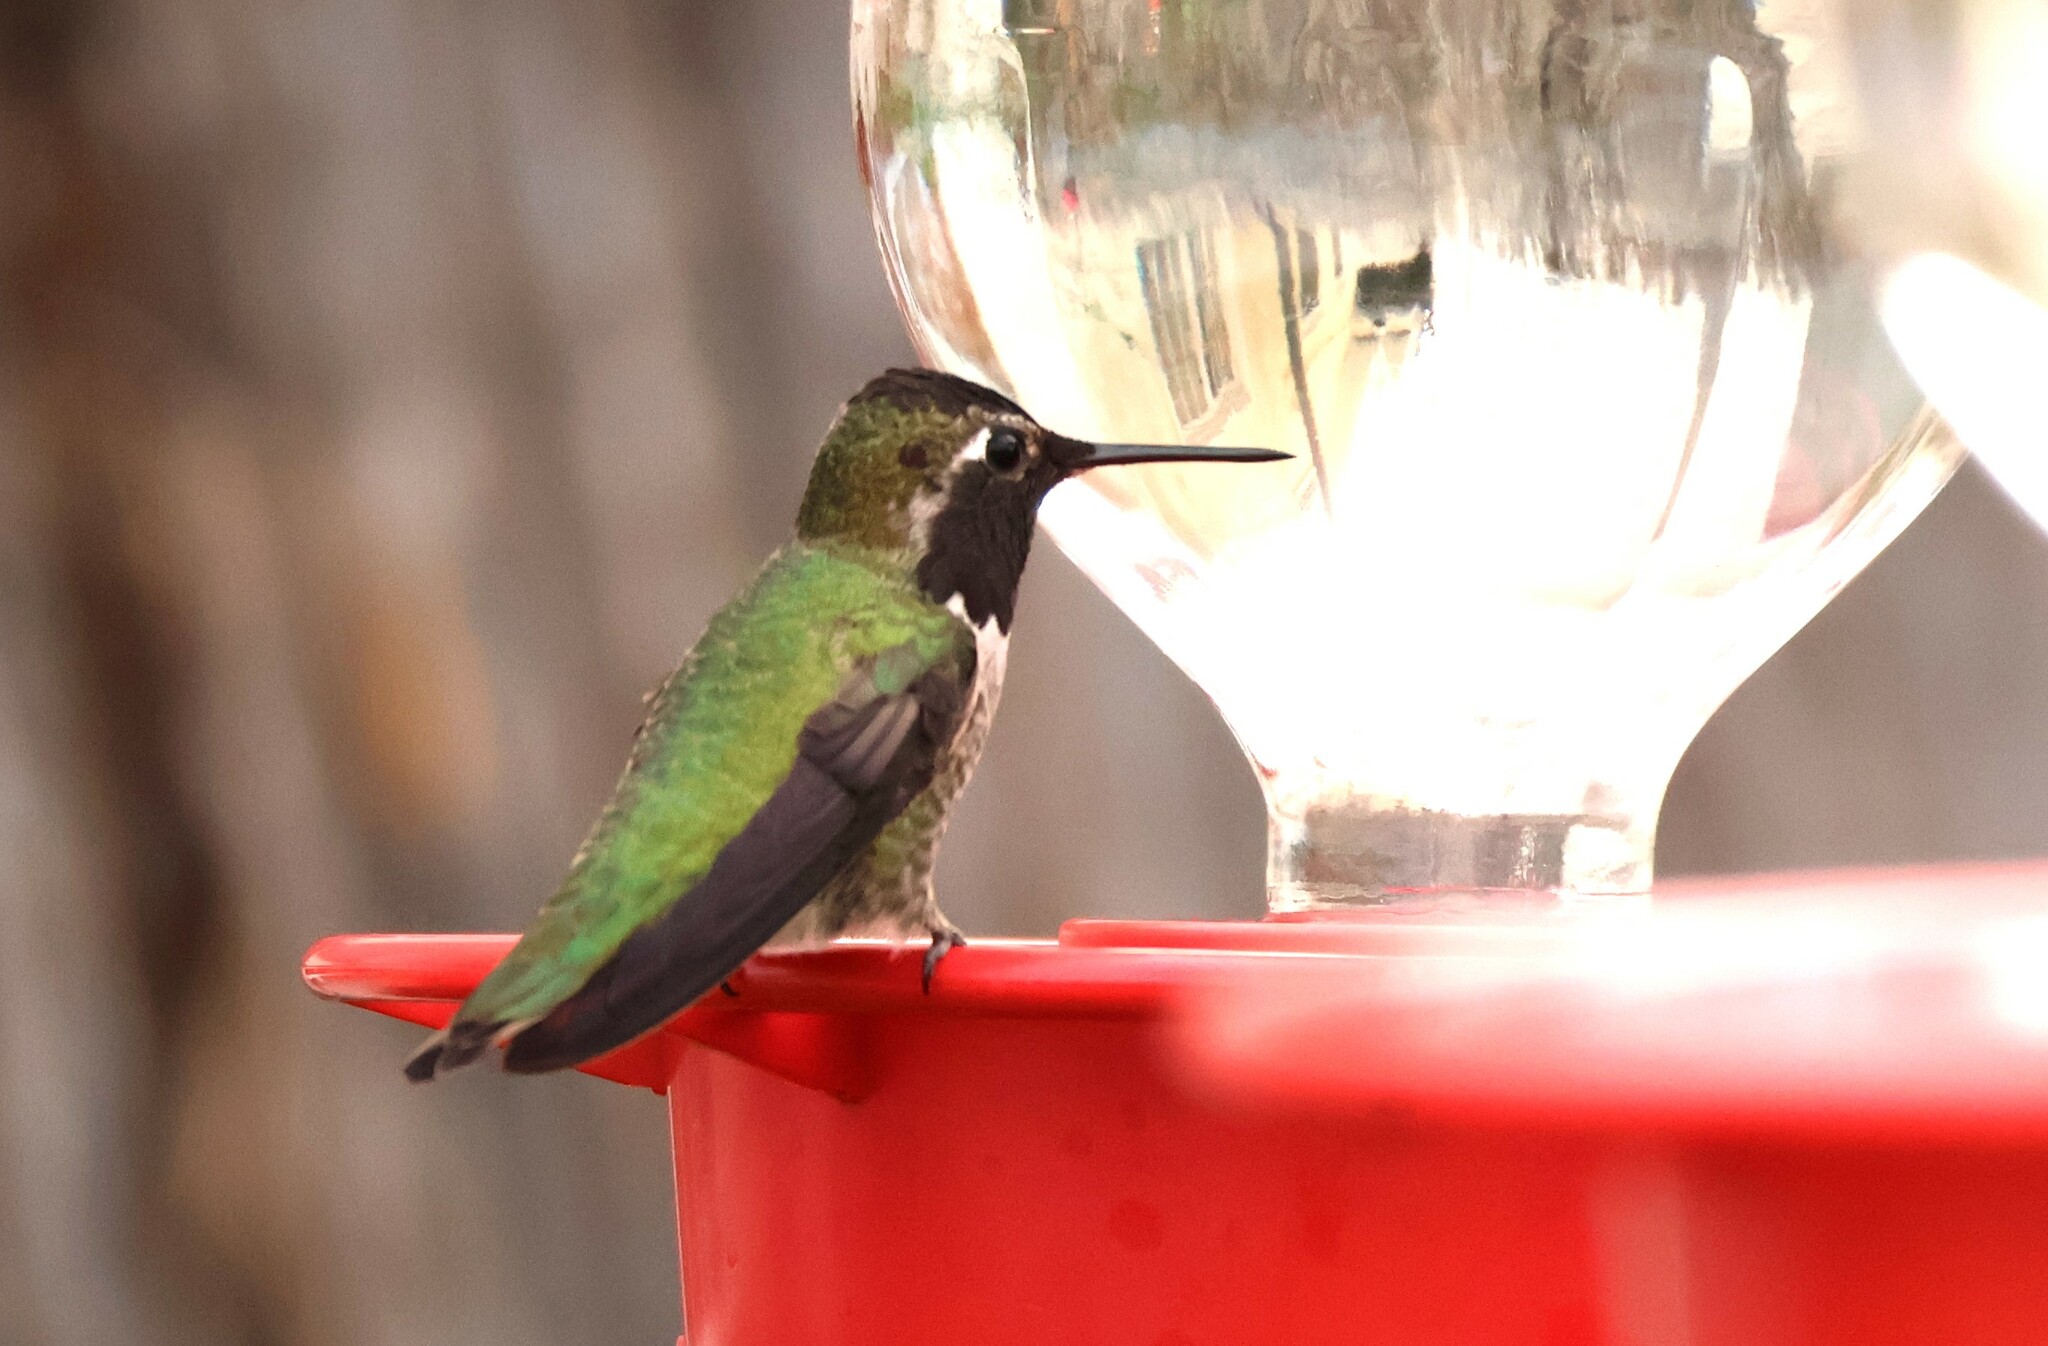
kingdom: Animalia
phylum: Chordata
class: Aves
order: Apodiformes
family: Trochilidae
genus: Calypte
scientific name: Calypte anna
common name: Anna's hummingbird
